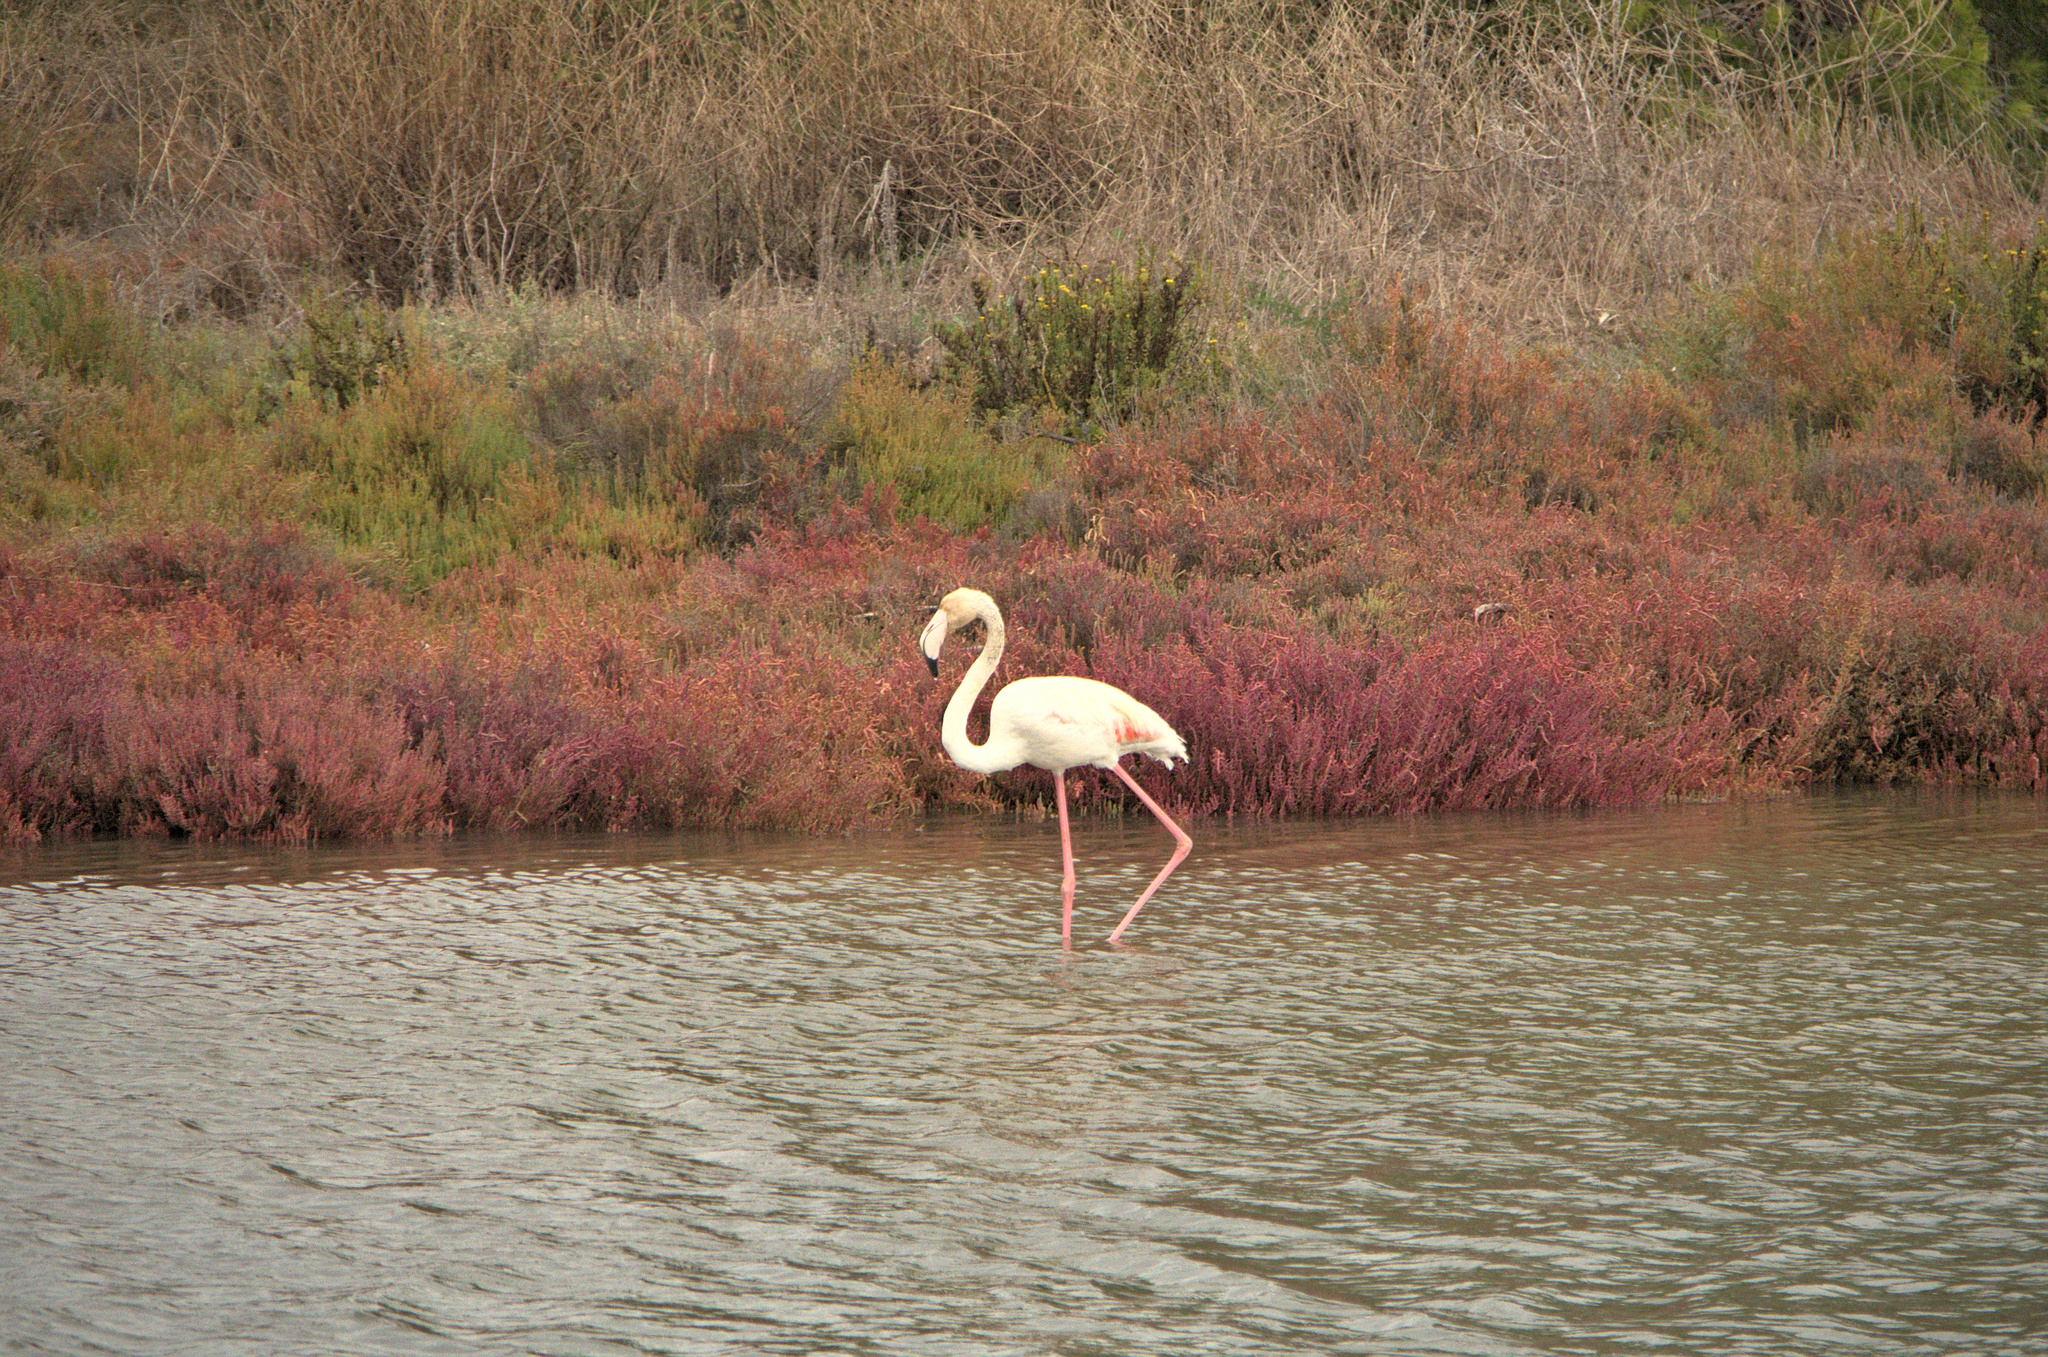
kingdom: Animalia
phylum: Chordata
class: Aves
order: Phoenicopteriformes
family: Phoenicopteridae
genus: Phoenicopterus
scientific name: Phoenicopterus roseus
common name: Greater flamingo
